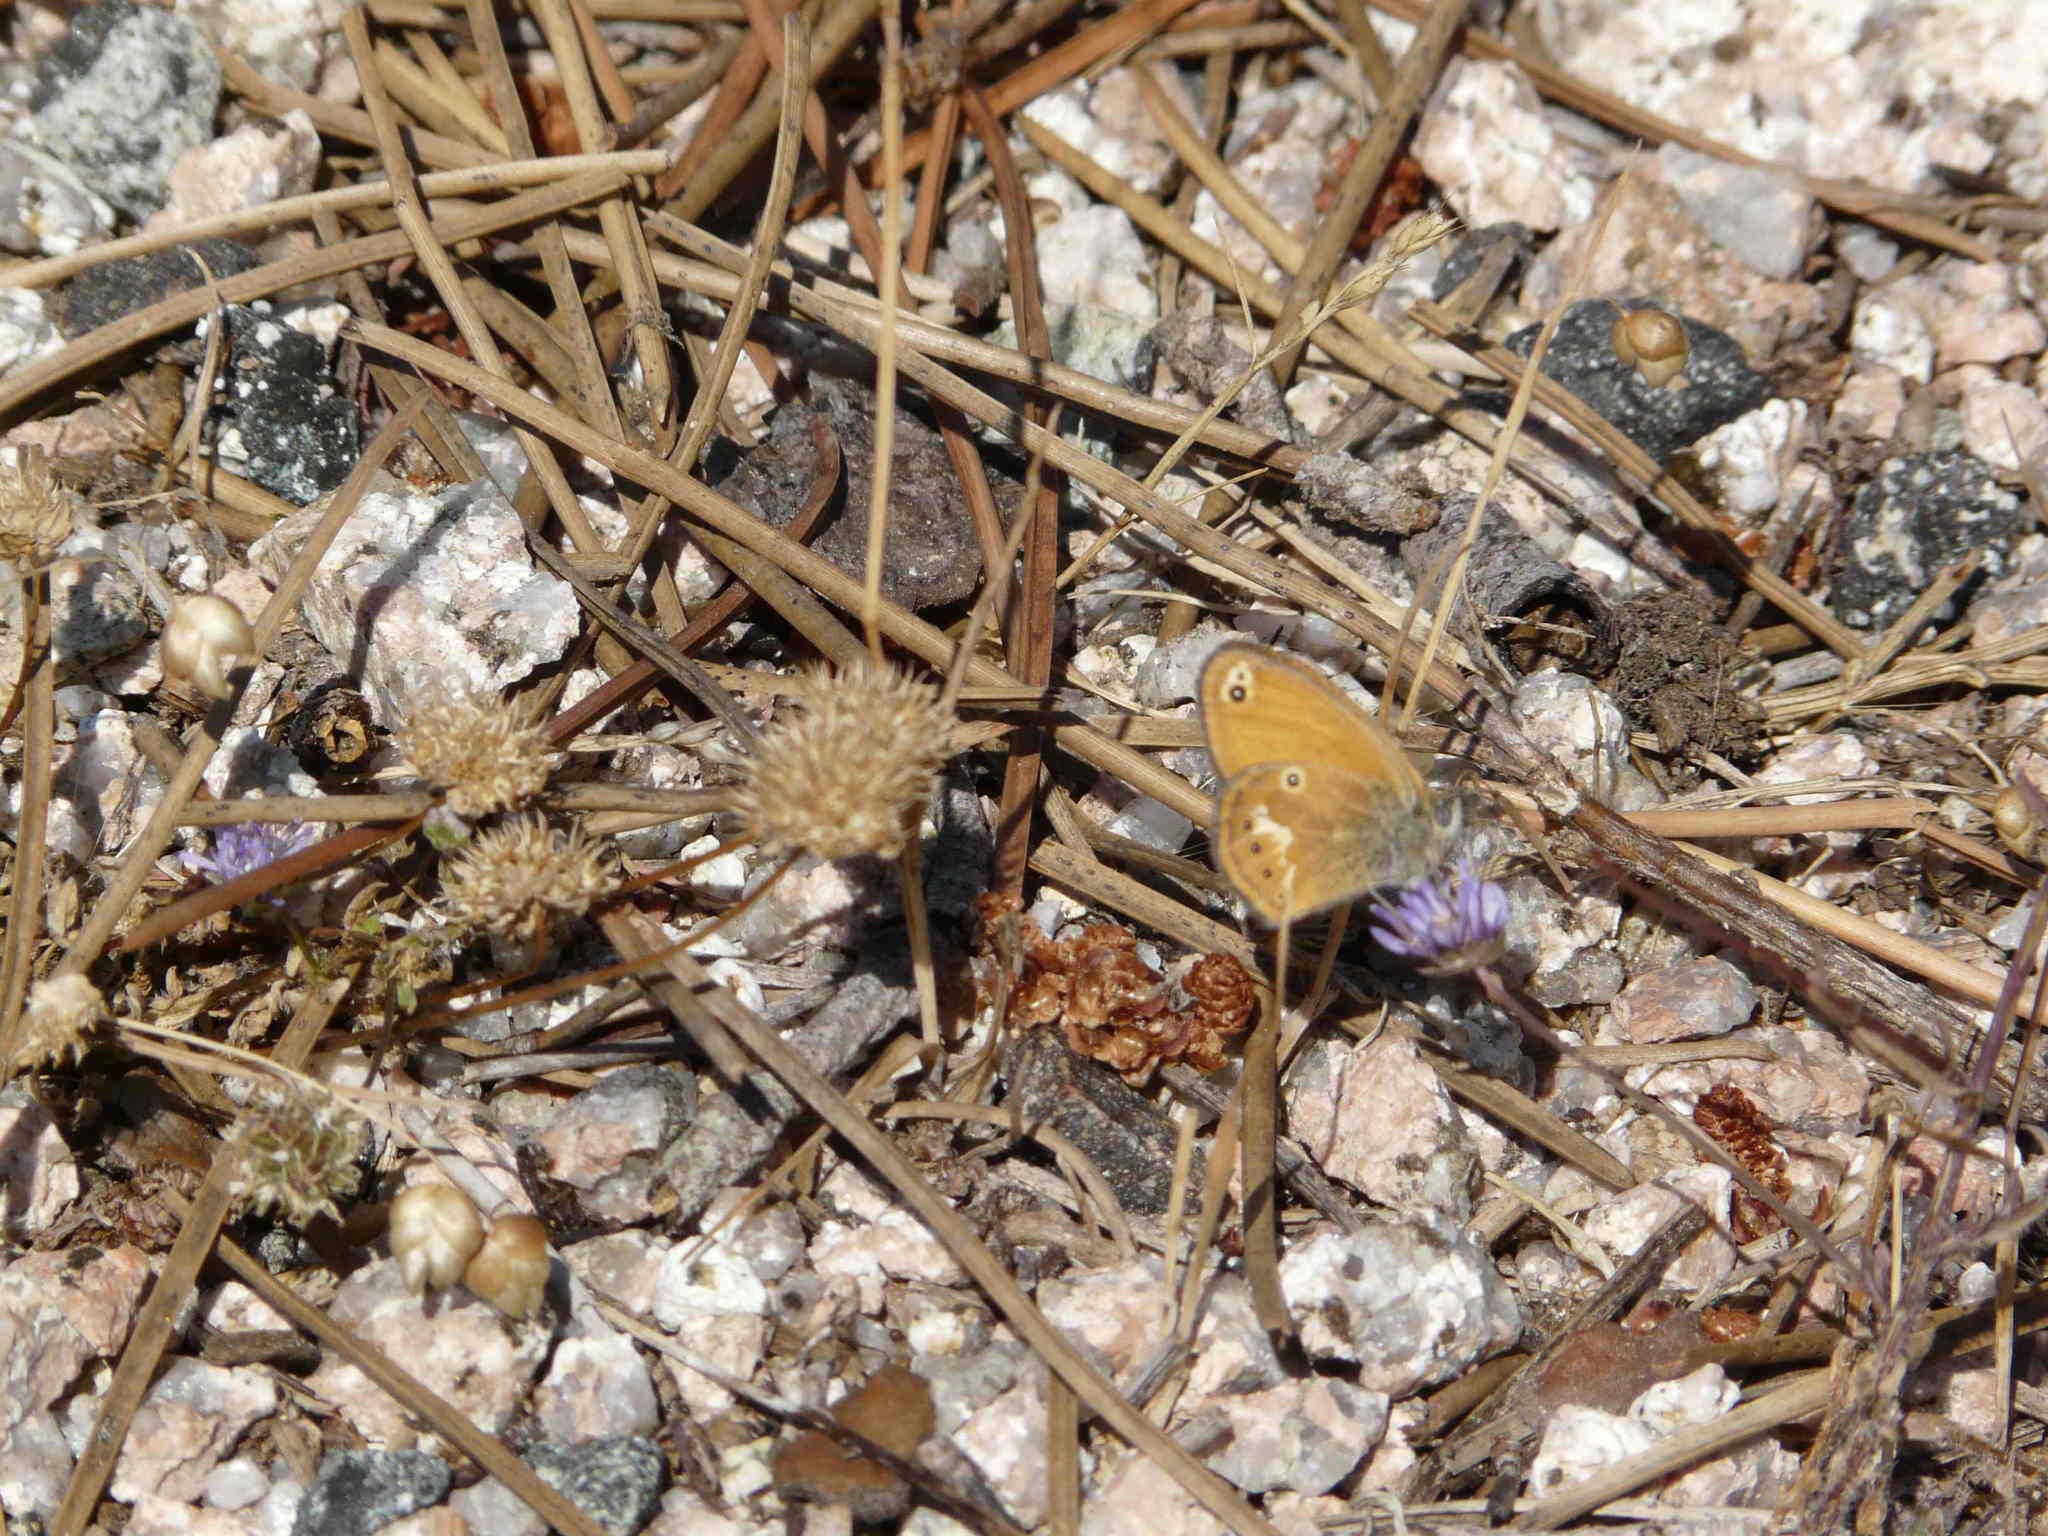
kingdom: Animalia
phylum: Arthropoda
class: Insecta
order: Lepidoptera
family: Nymphalidae
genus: Coenonympha
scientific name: Coenonympha corinna
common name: Corsican heath
